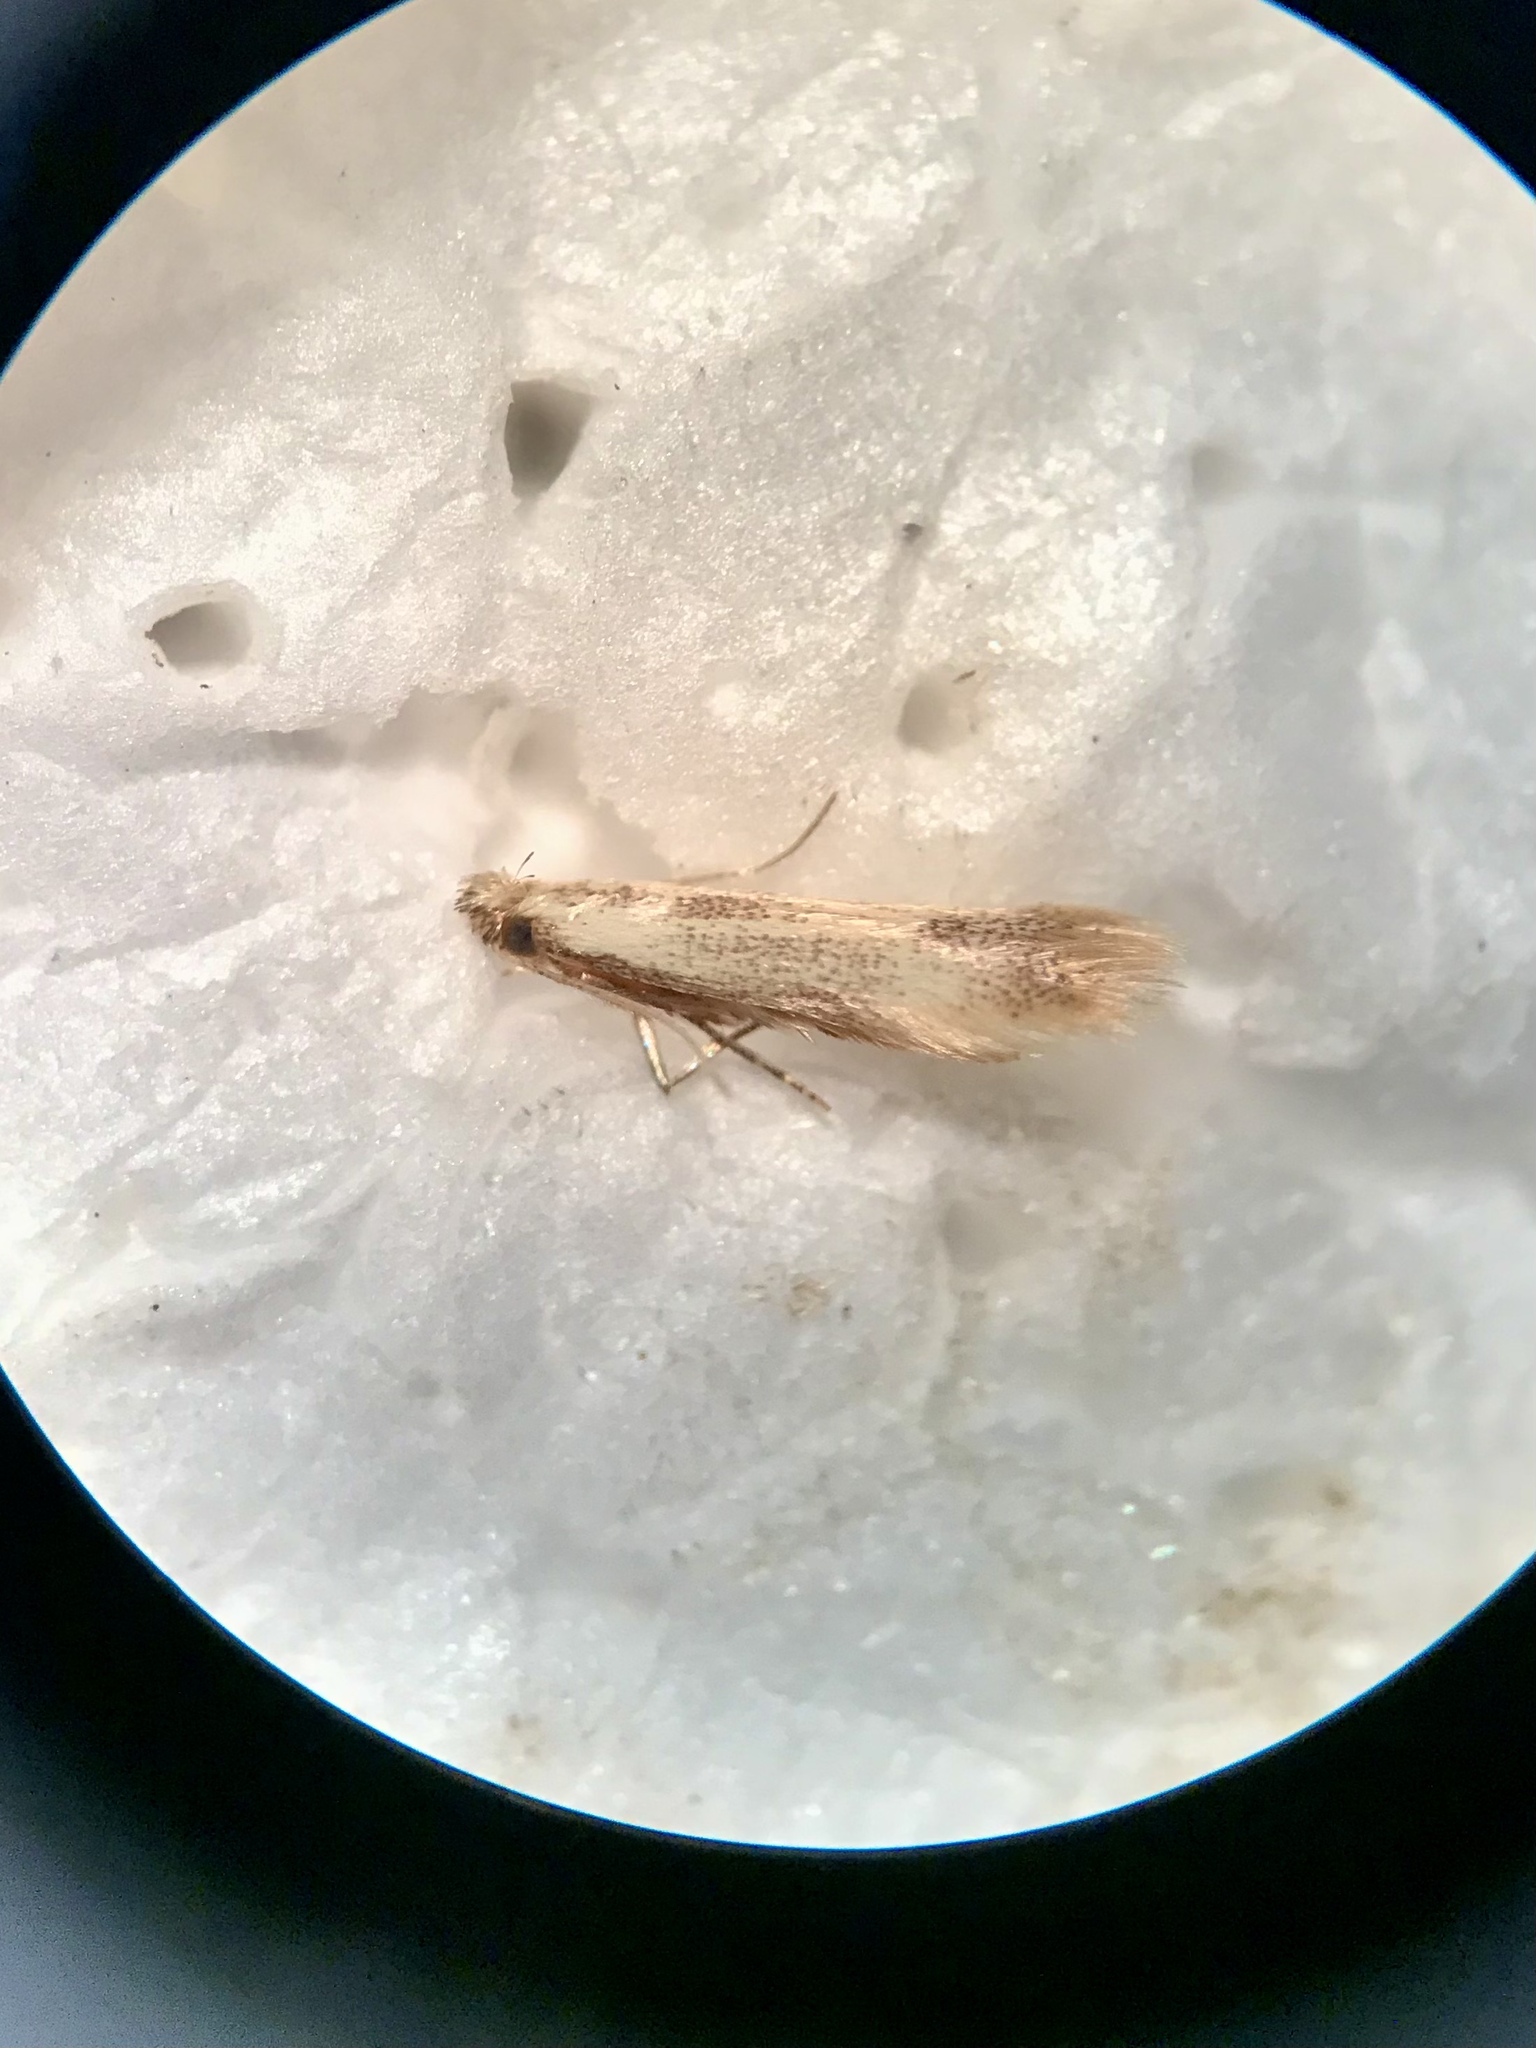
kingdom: Animalia
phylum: Arthropoda
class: Insecta
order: Lepidoptera
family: Tischeriidae
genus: Coptotriche
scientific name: Coptotriche purinosella
